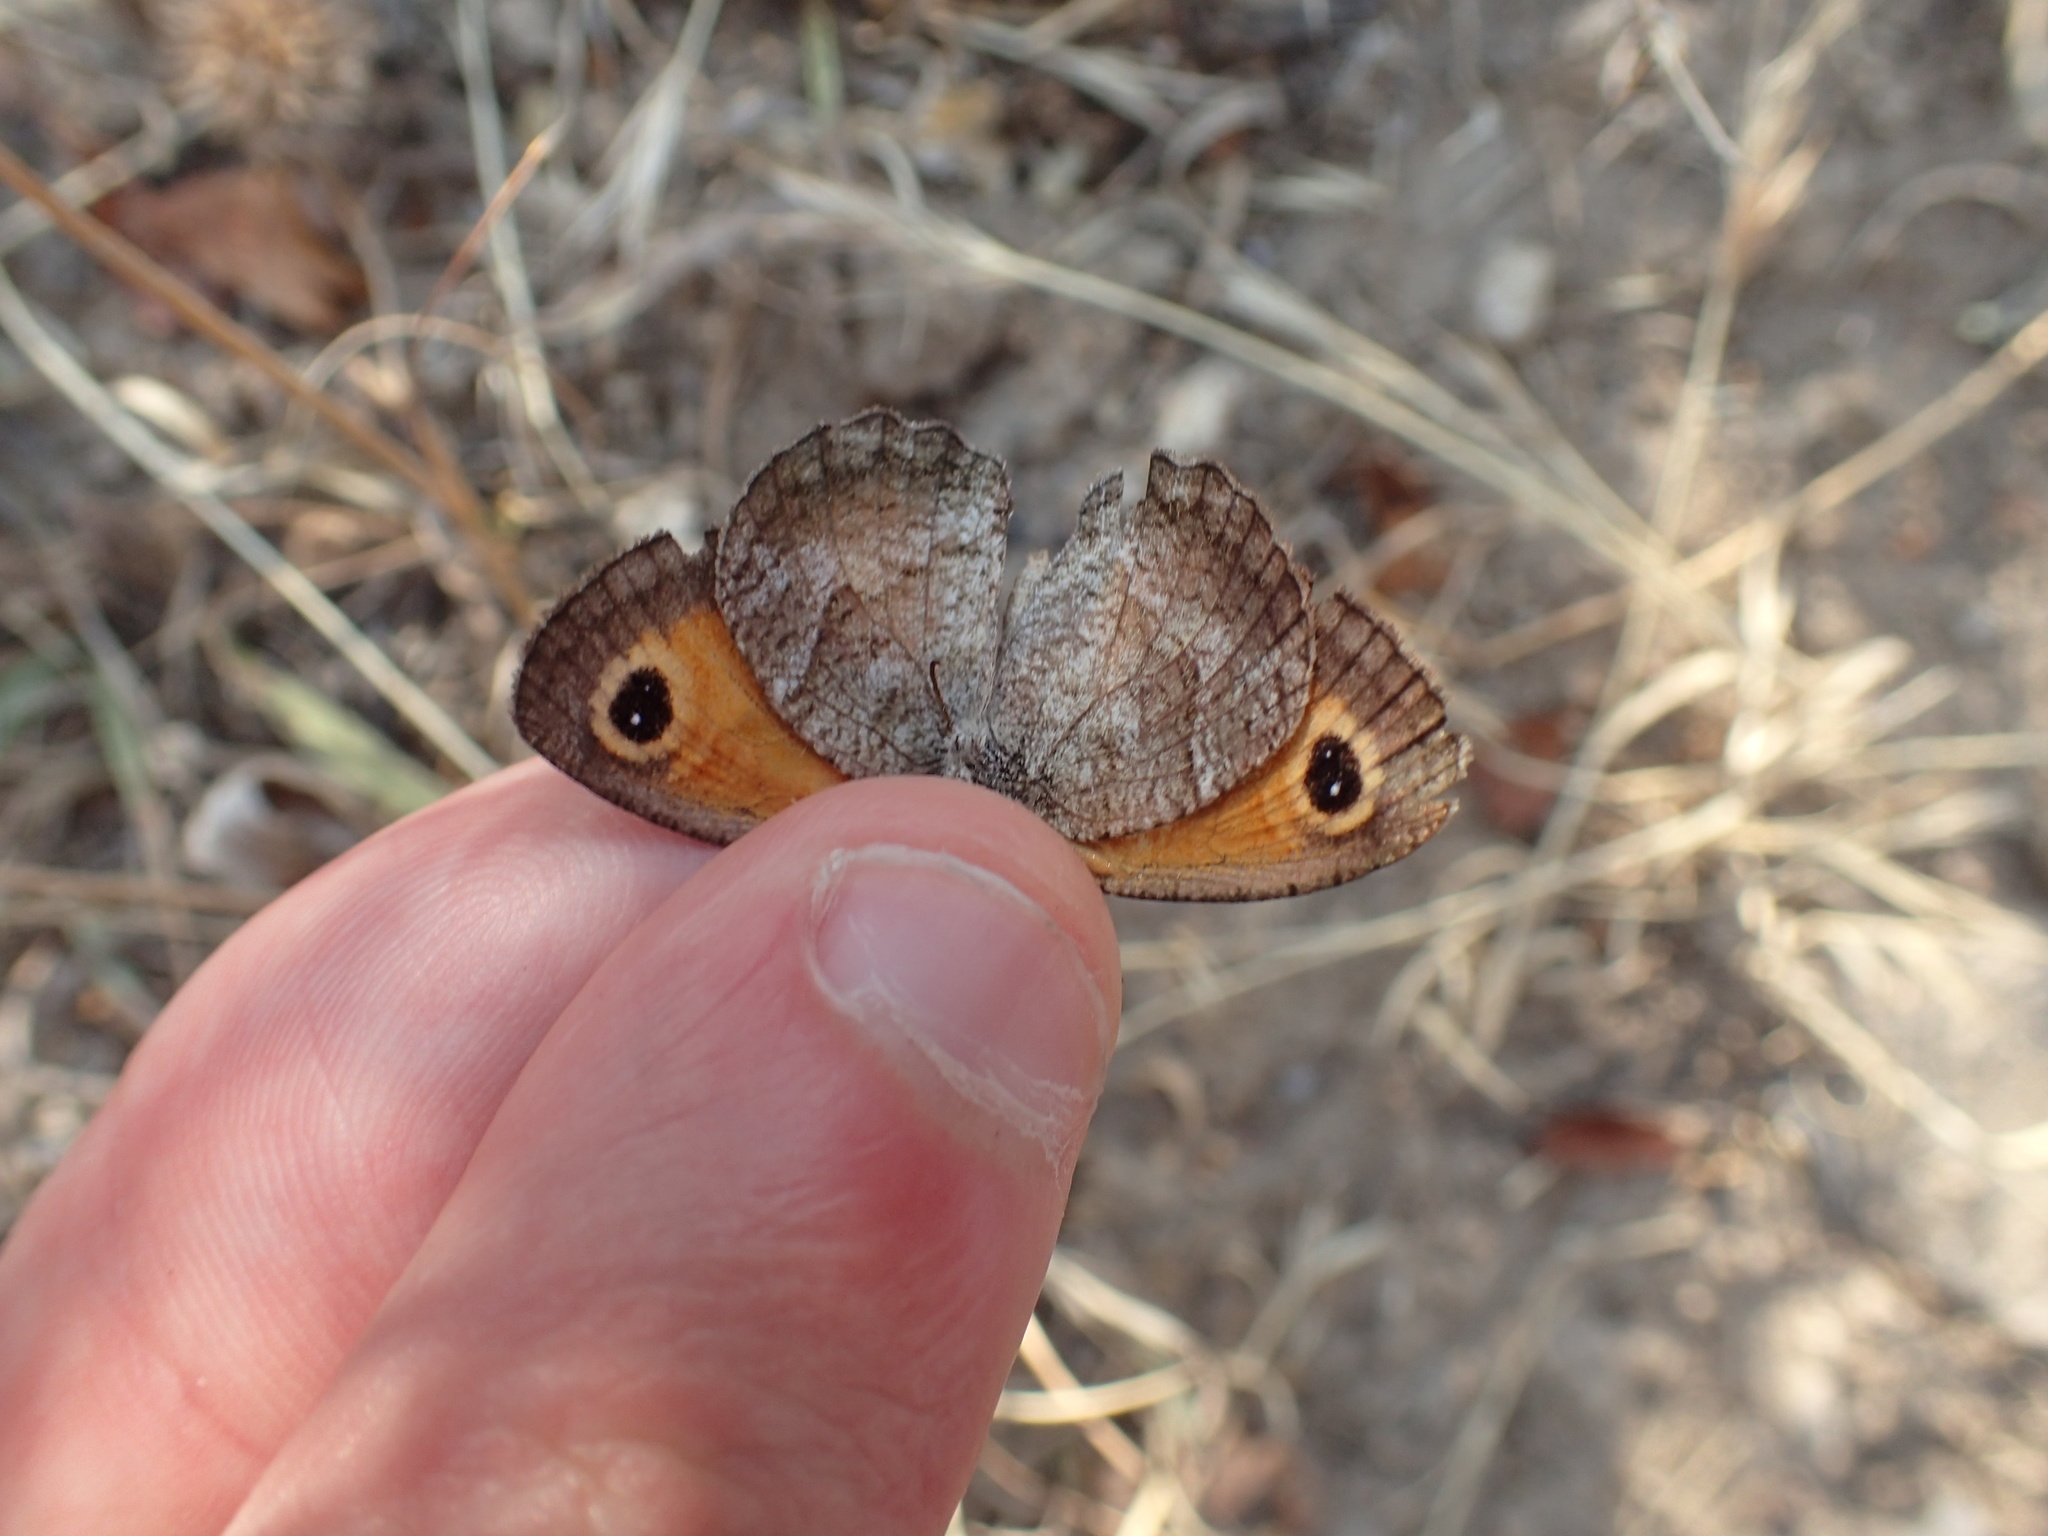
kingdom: Animalia
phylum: Arthropoda
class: Insecta
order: Lepidoptera
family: Nymphalidae
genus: Pyronia
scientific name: Pyronia cecilia
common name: Southern gatekeeper
